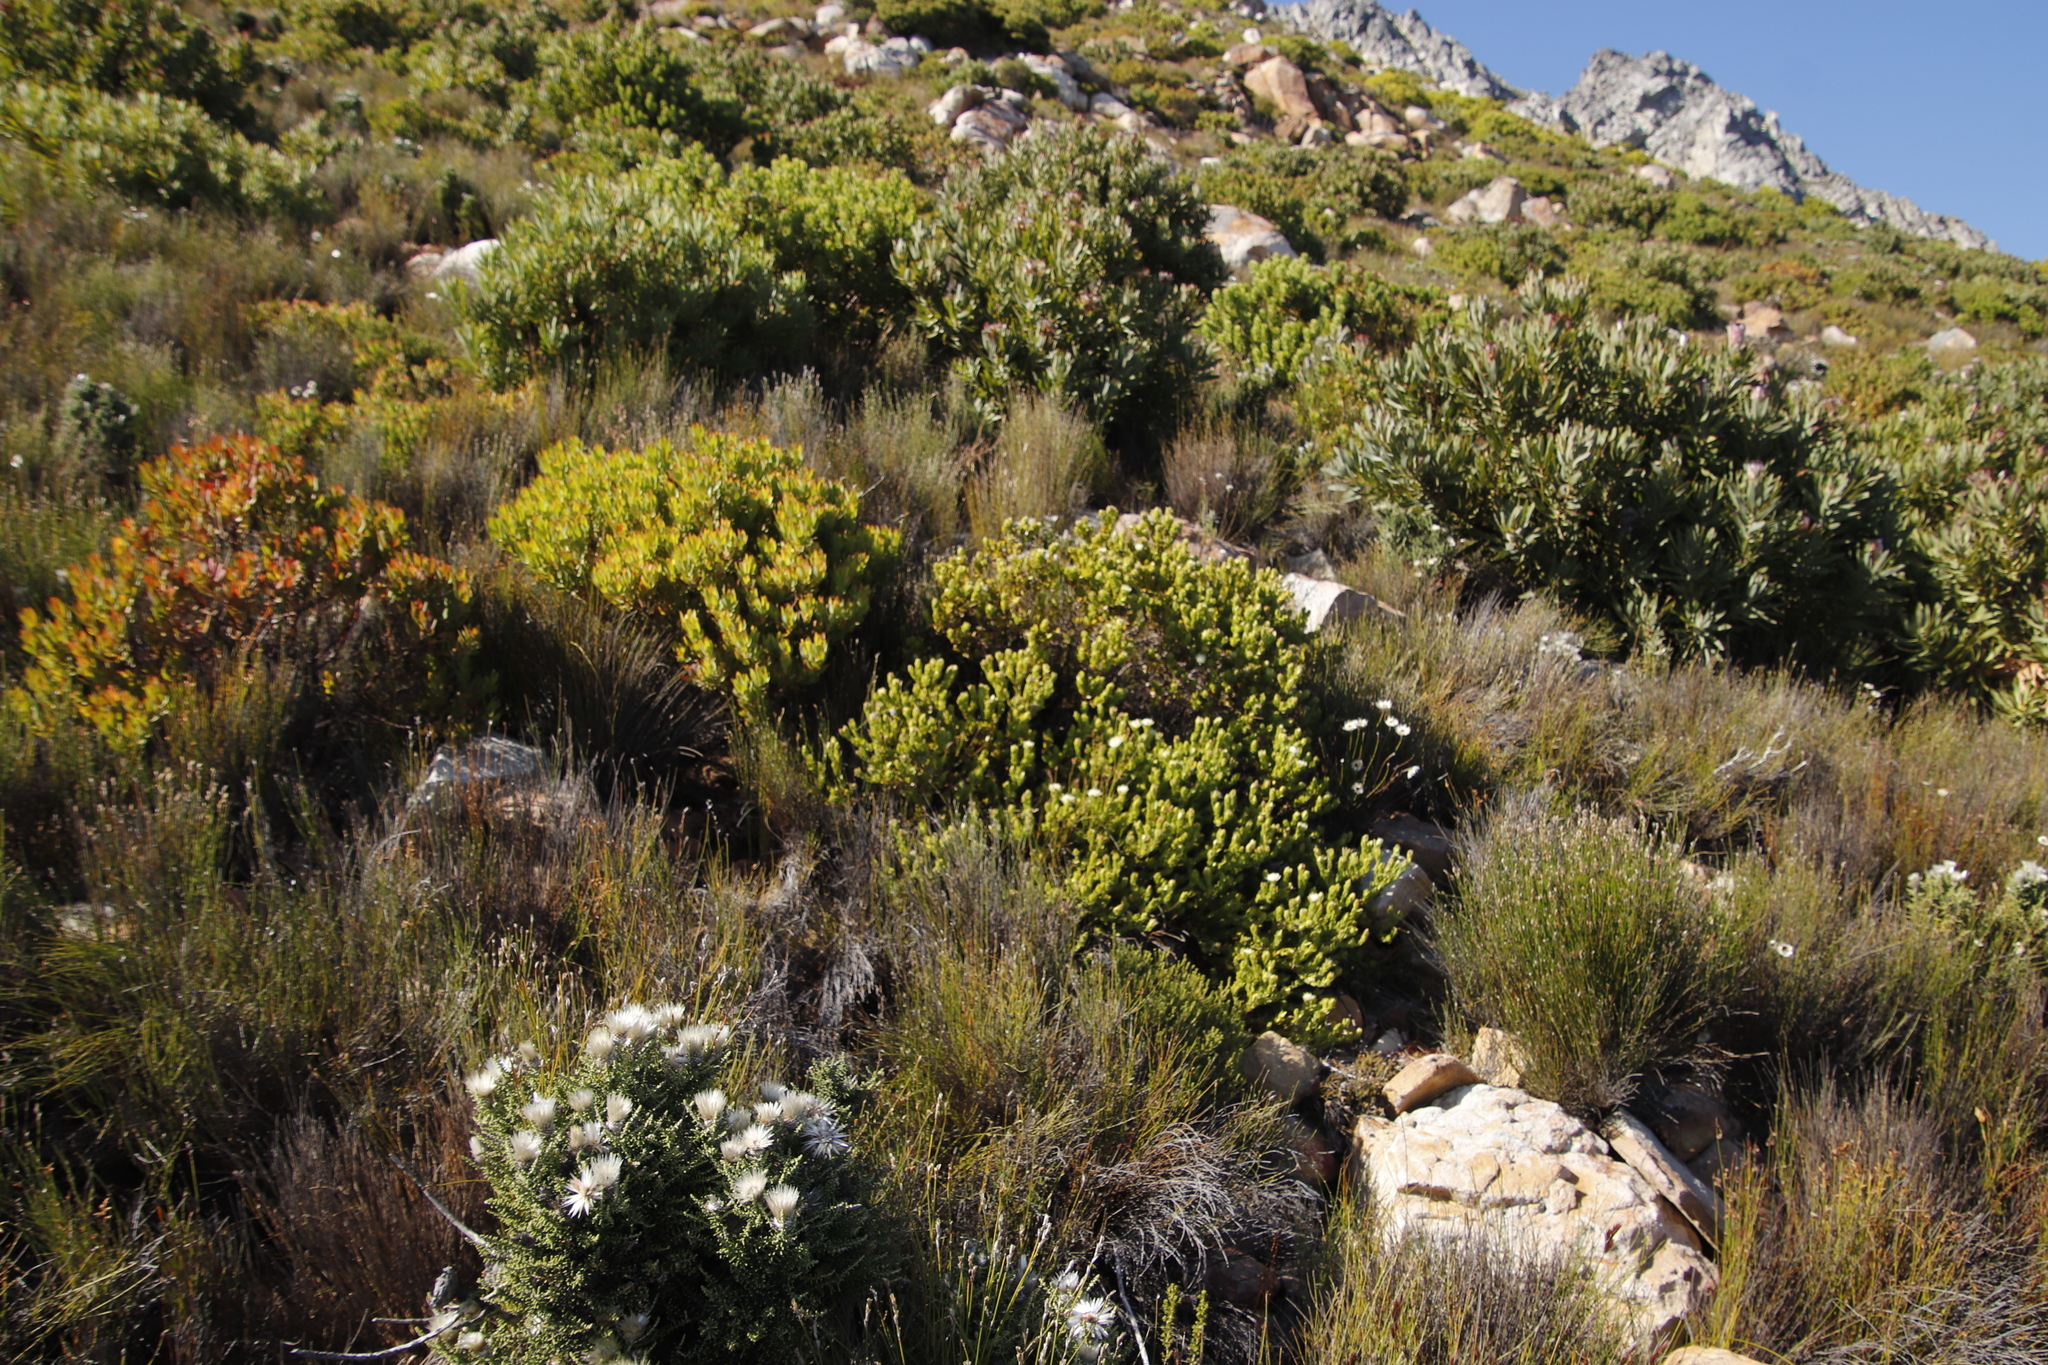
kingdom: Plantae
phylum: Tracheophyta
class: Magnoliopsida
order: Proteales
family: Proteaceae
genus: Diastella
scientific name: Diastella thymelaeoides
